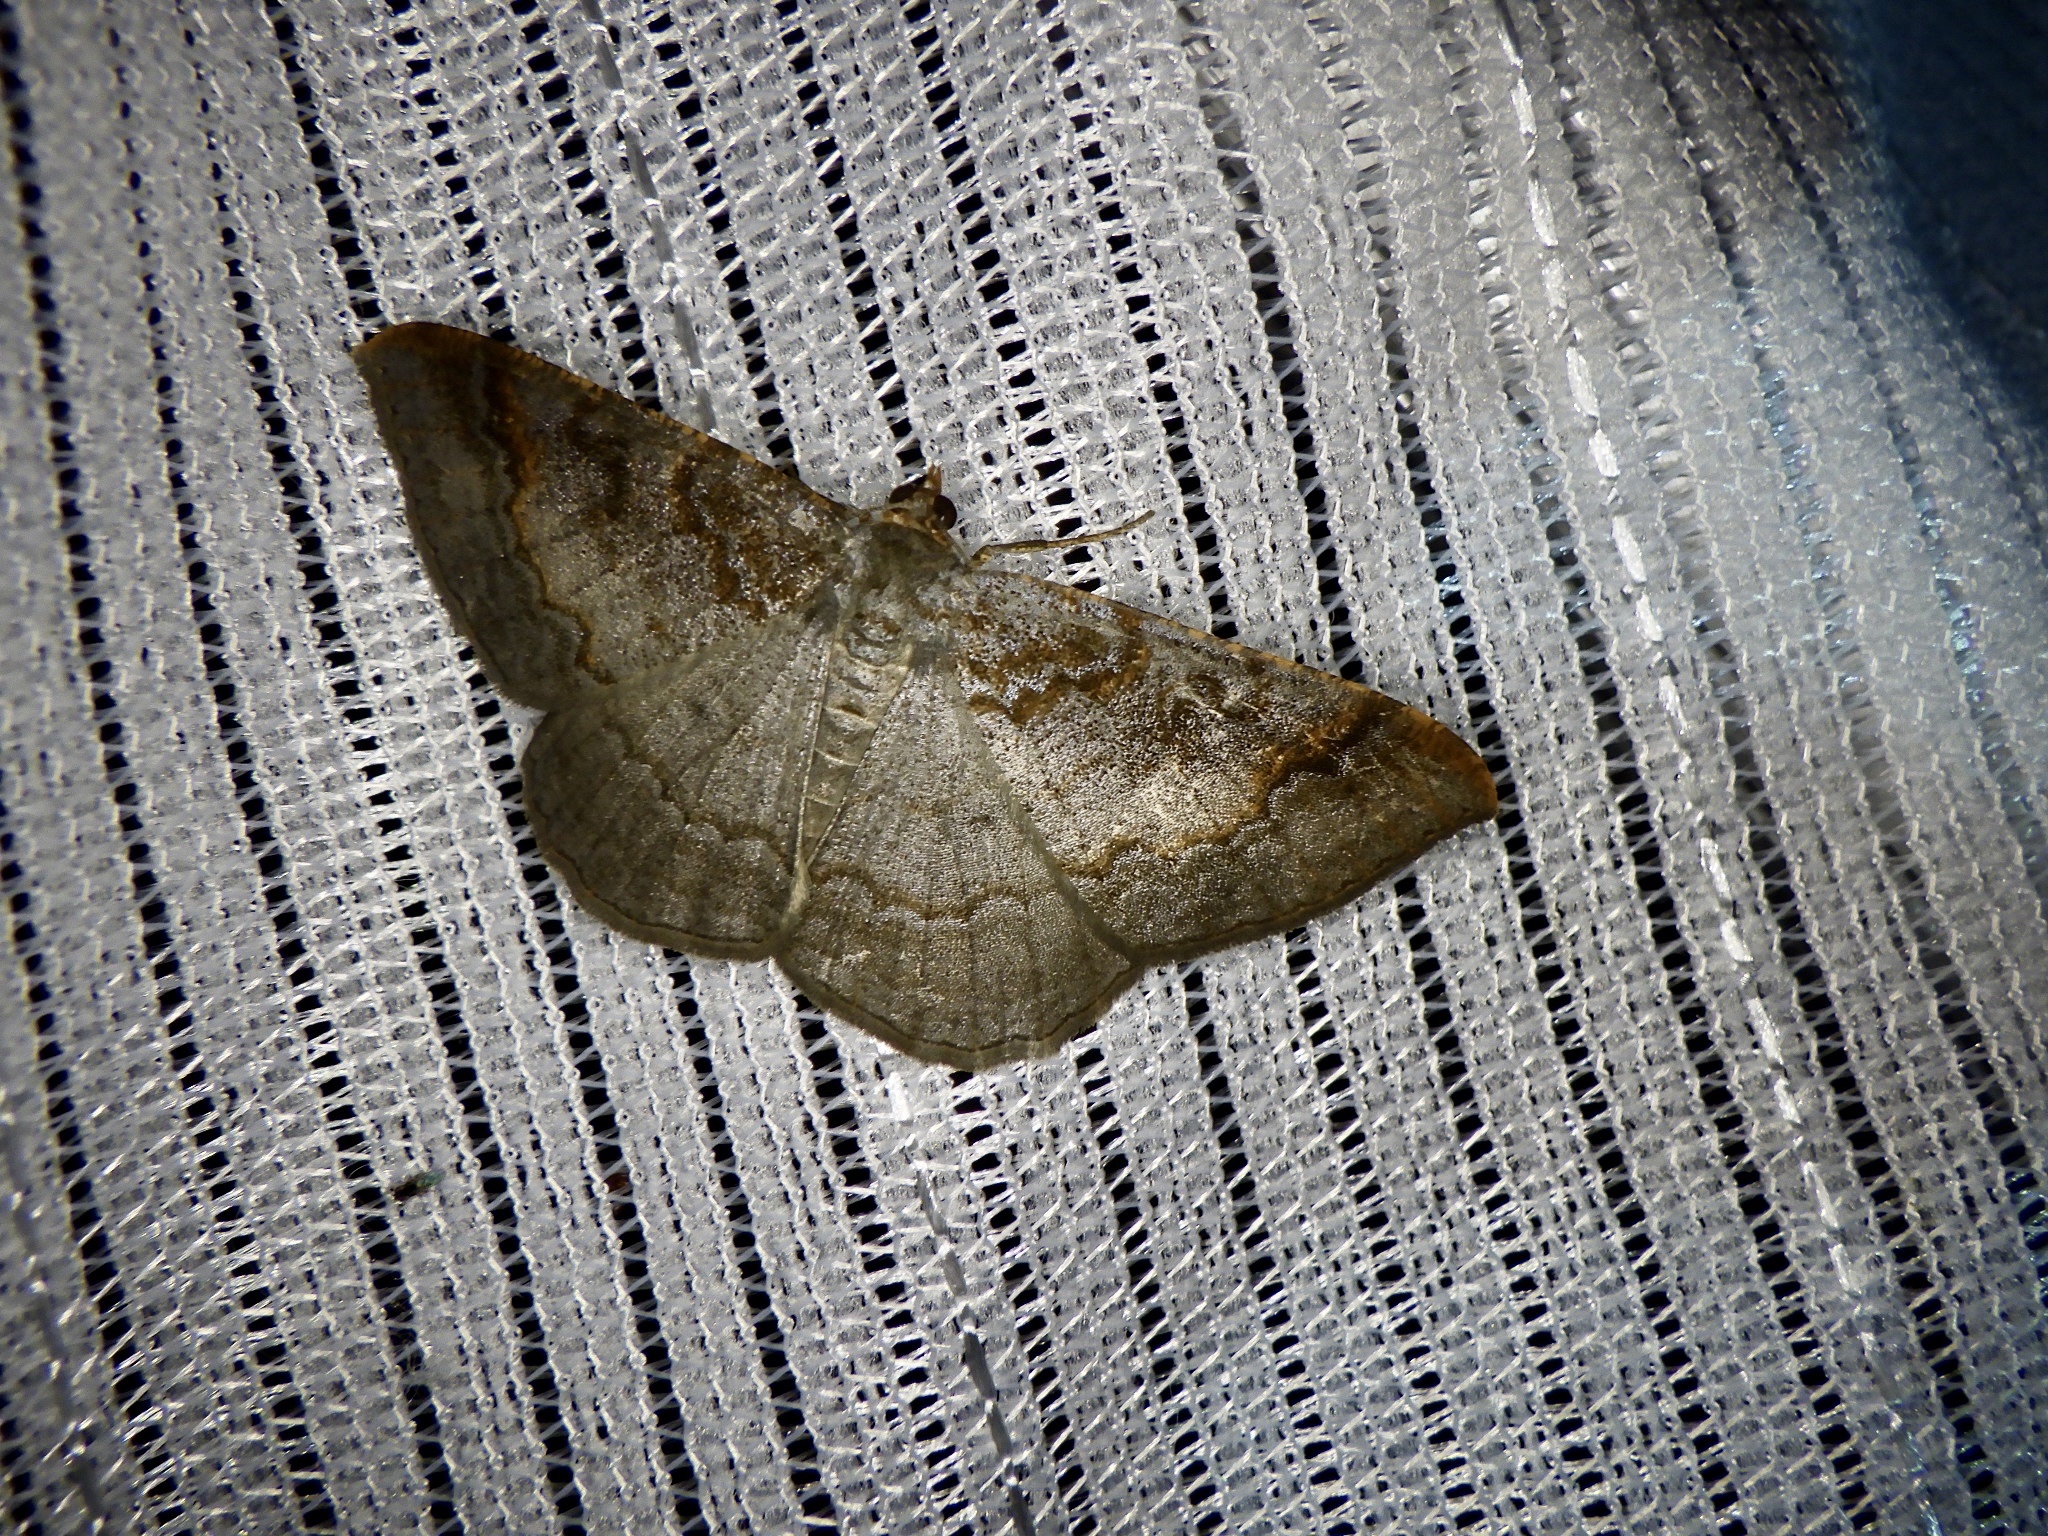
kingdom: Animalia
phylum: Arthropoda
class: Insecta
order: Lepidoptera
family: Geometridae
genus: Hypephyra
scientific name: Hypephyra terrosa
